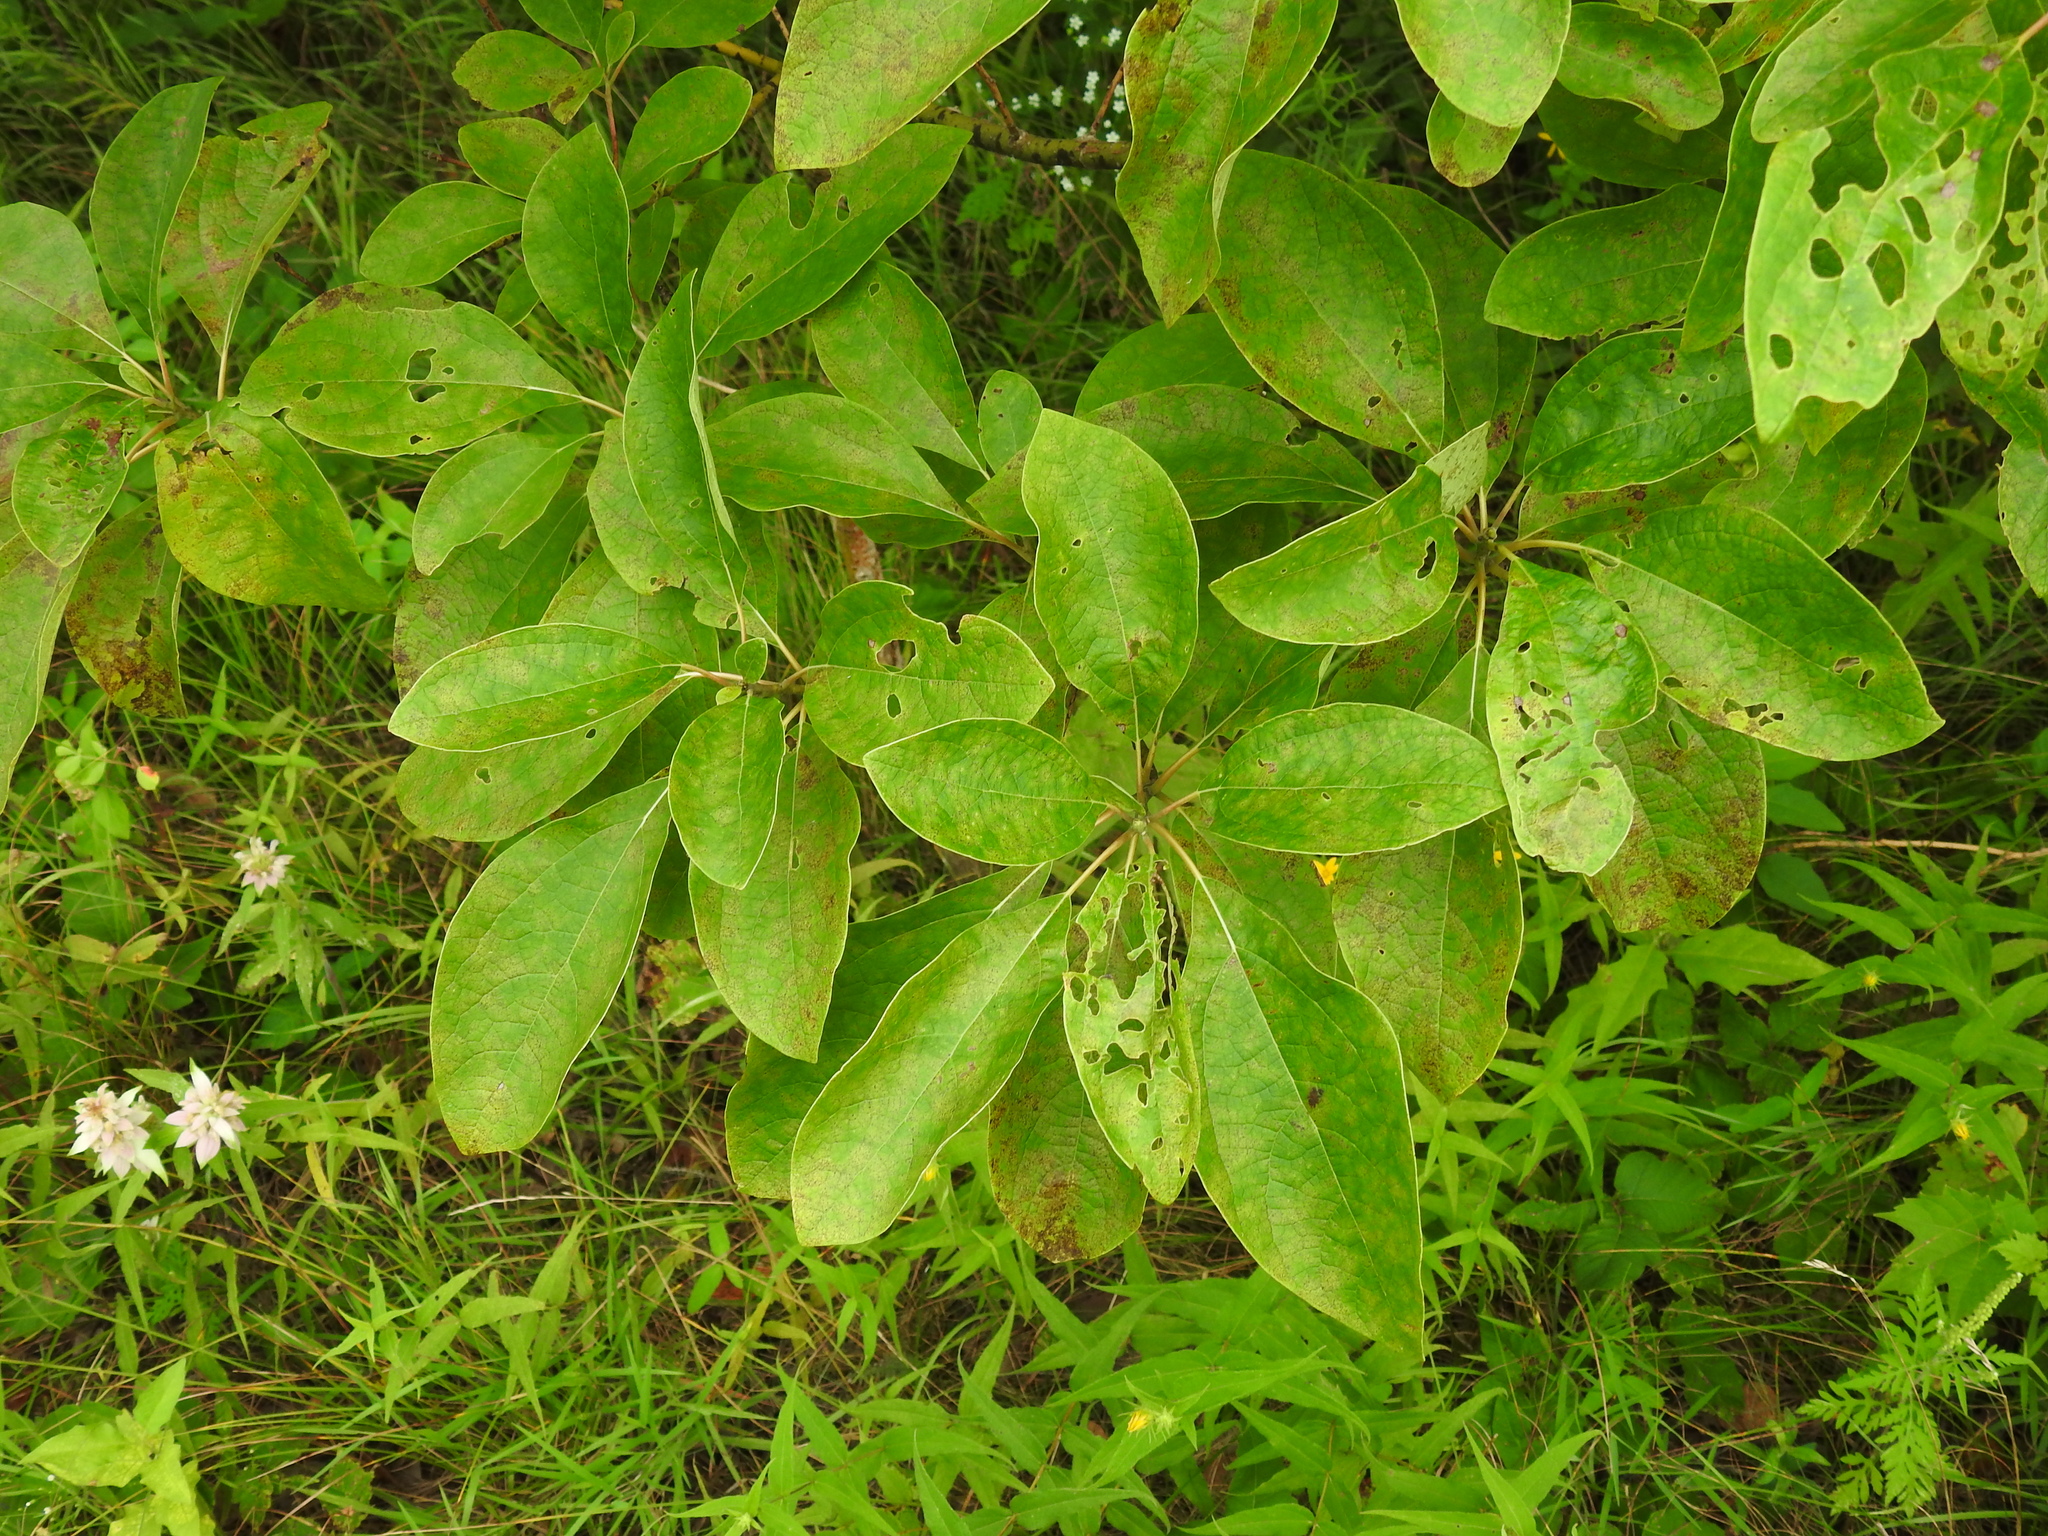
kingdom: Plantae
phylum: Tracheophyta
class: Magnoliopsida
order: Laurales
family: Lauraceae
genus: Sassafras
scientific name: Sassafras albidum
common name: Sassafras
